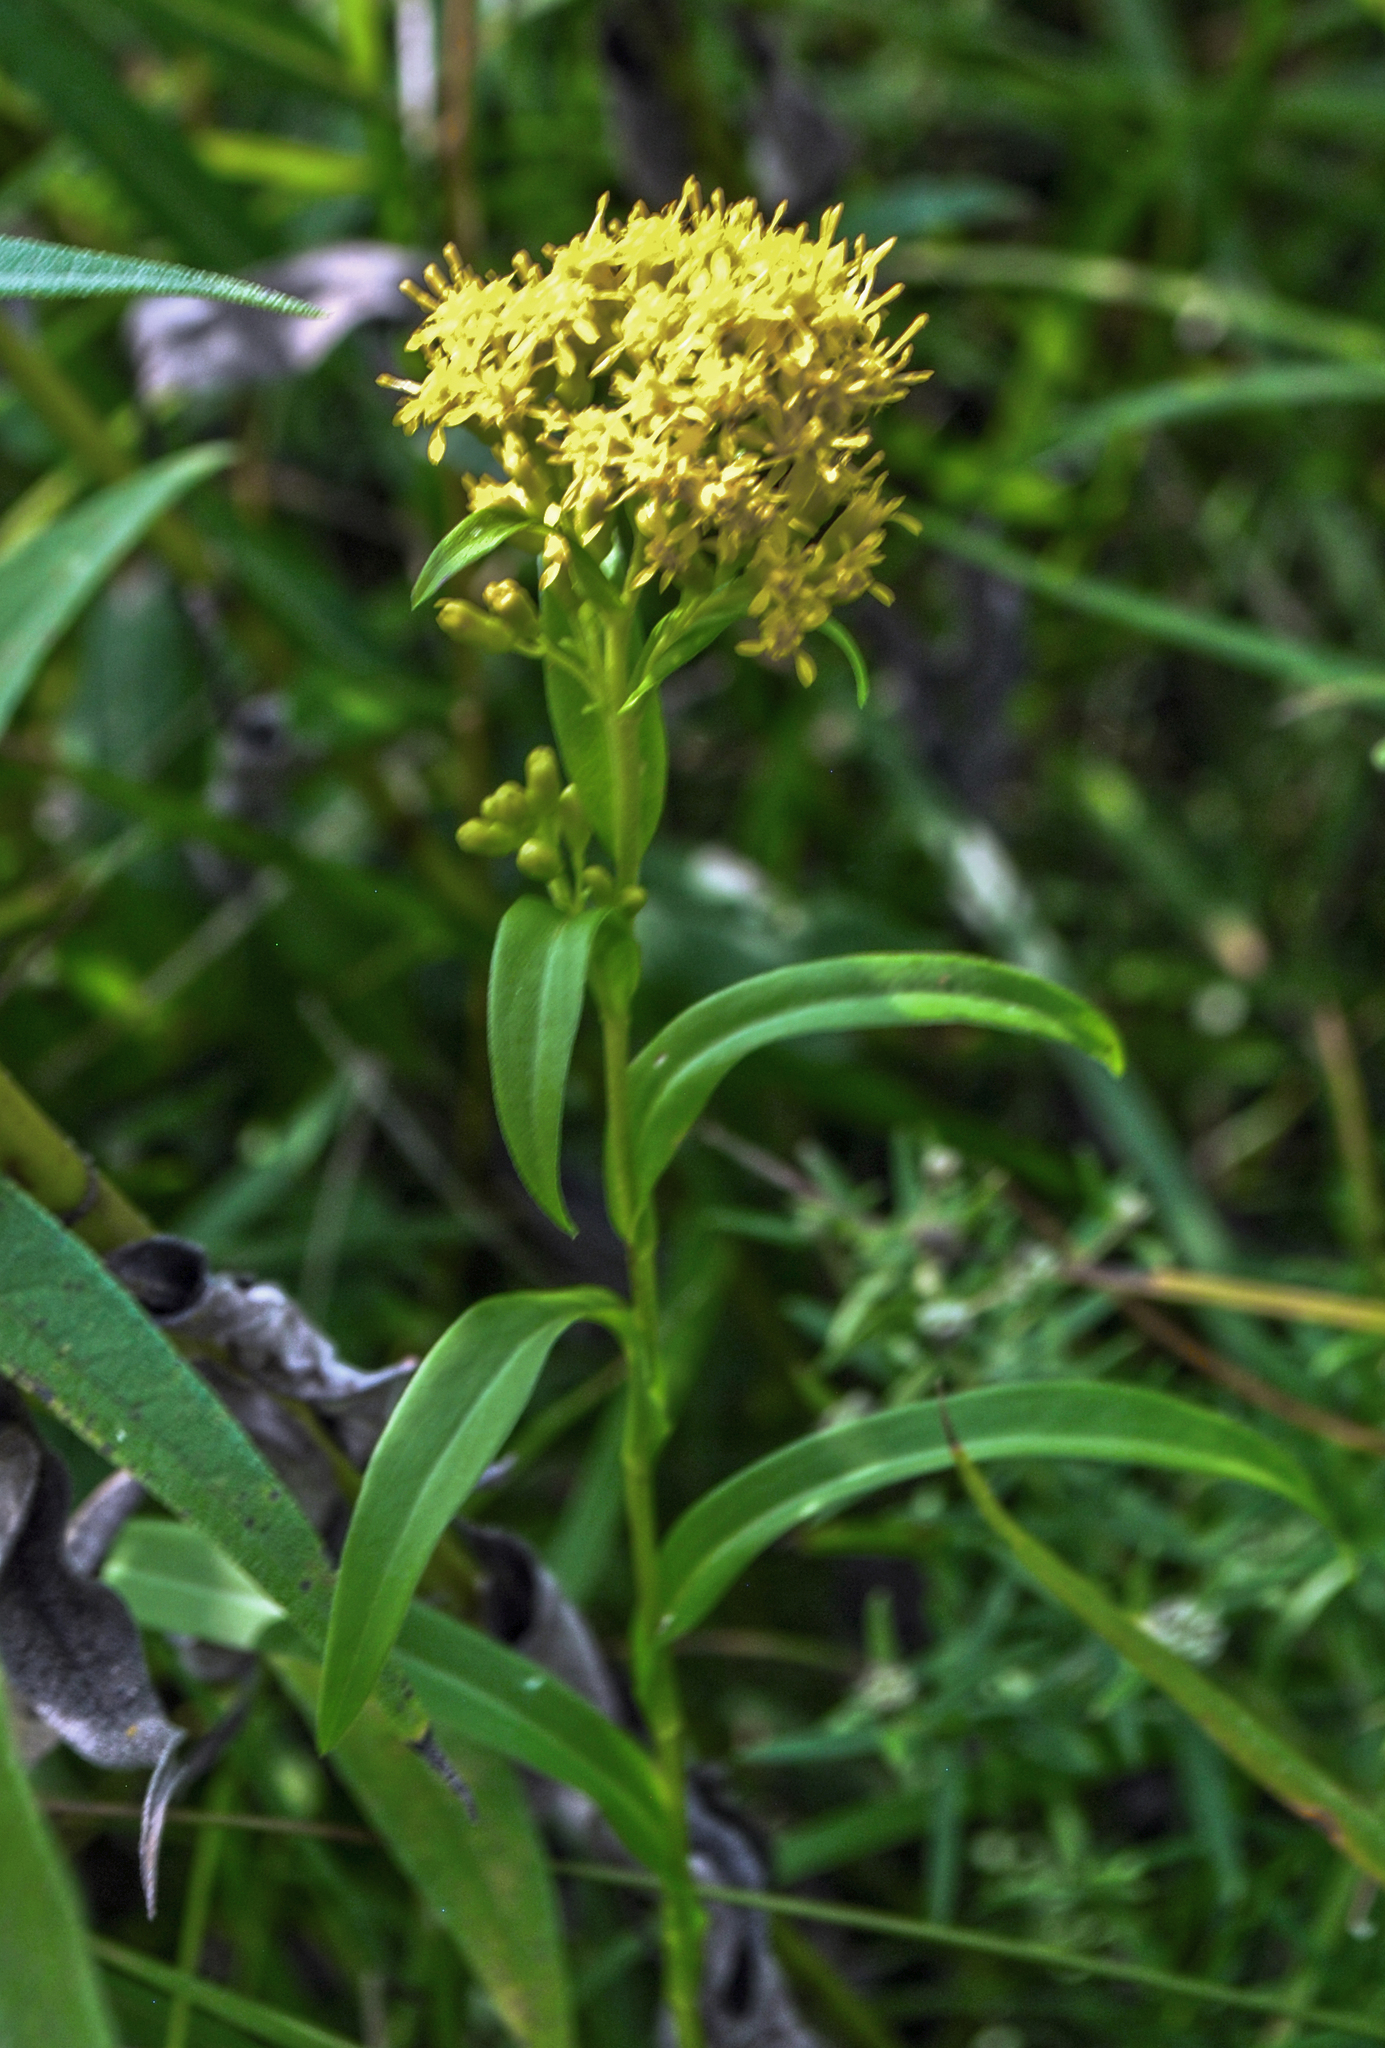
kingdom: Plantae
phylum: Tracheophyta
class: Magnoliopsida
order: Asterales
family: Asteraceae
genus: Solidago
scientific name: Solidago riddellii
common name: Riddell's goldenrod
